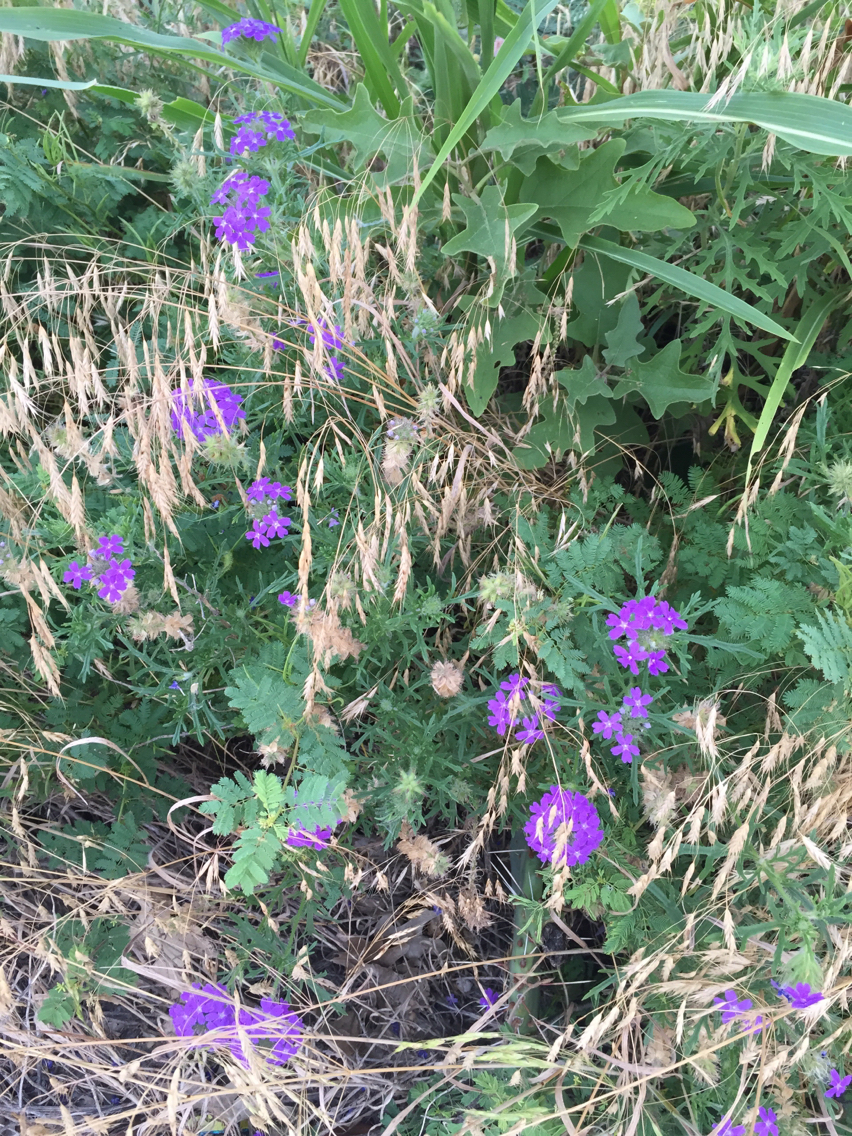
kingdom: Plantae
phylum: Tracheophyta
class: Magnoliopsida
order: Lamiales
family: Verbenaceae
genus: Verbena
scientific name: Verbena bipinnatifida
